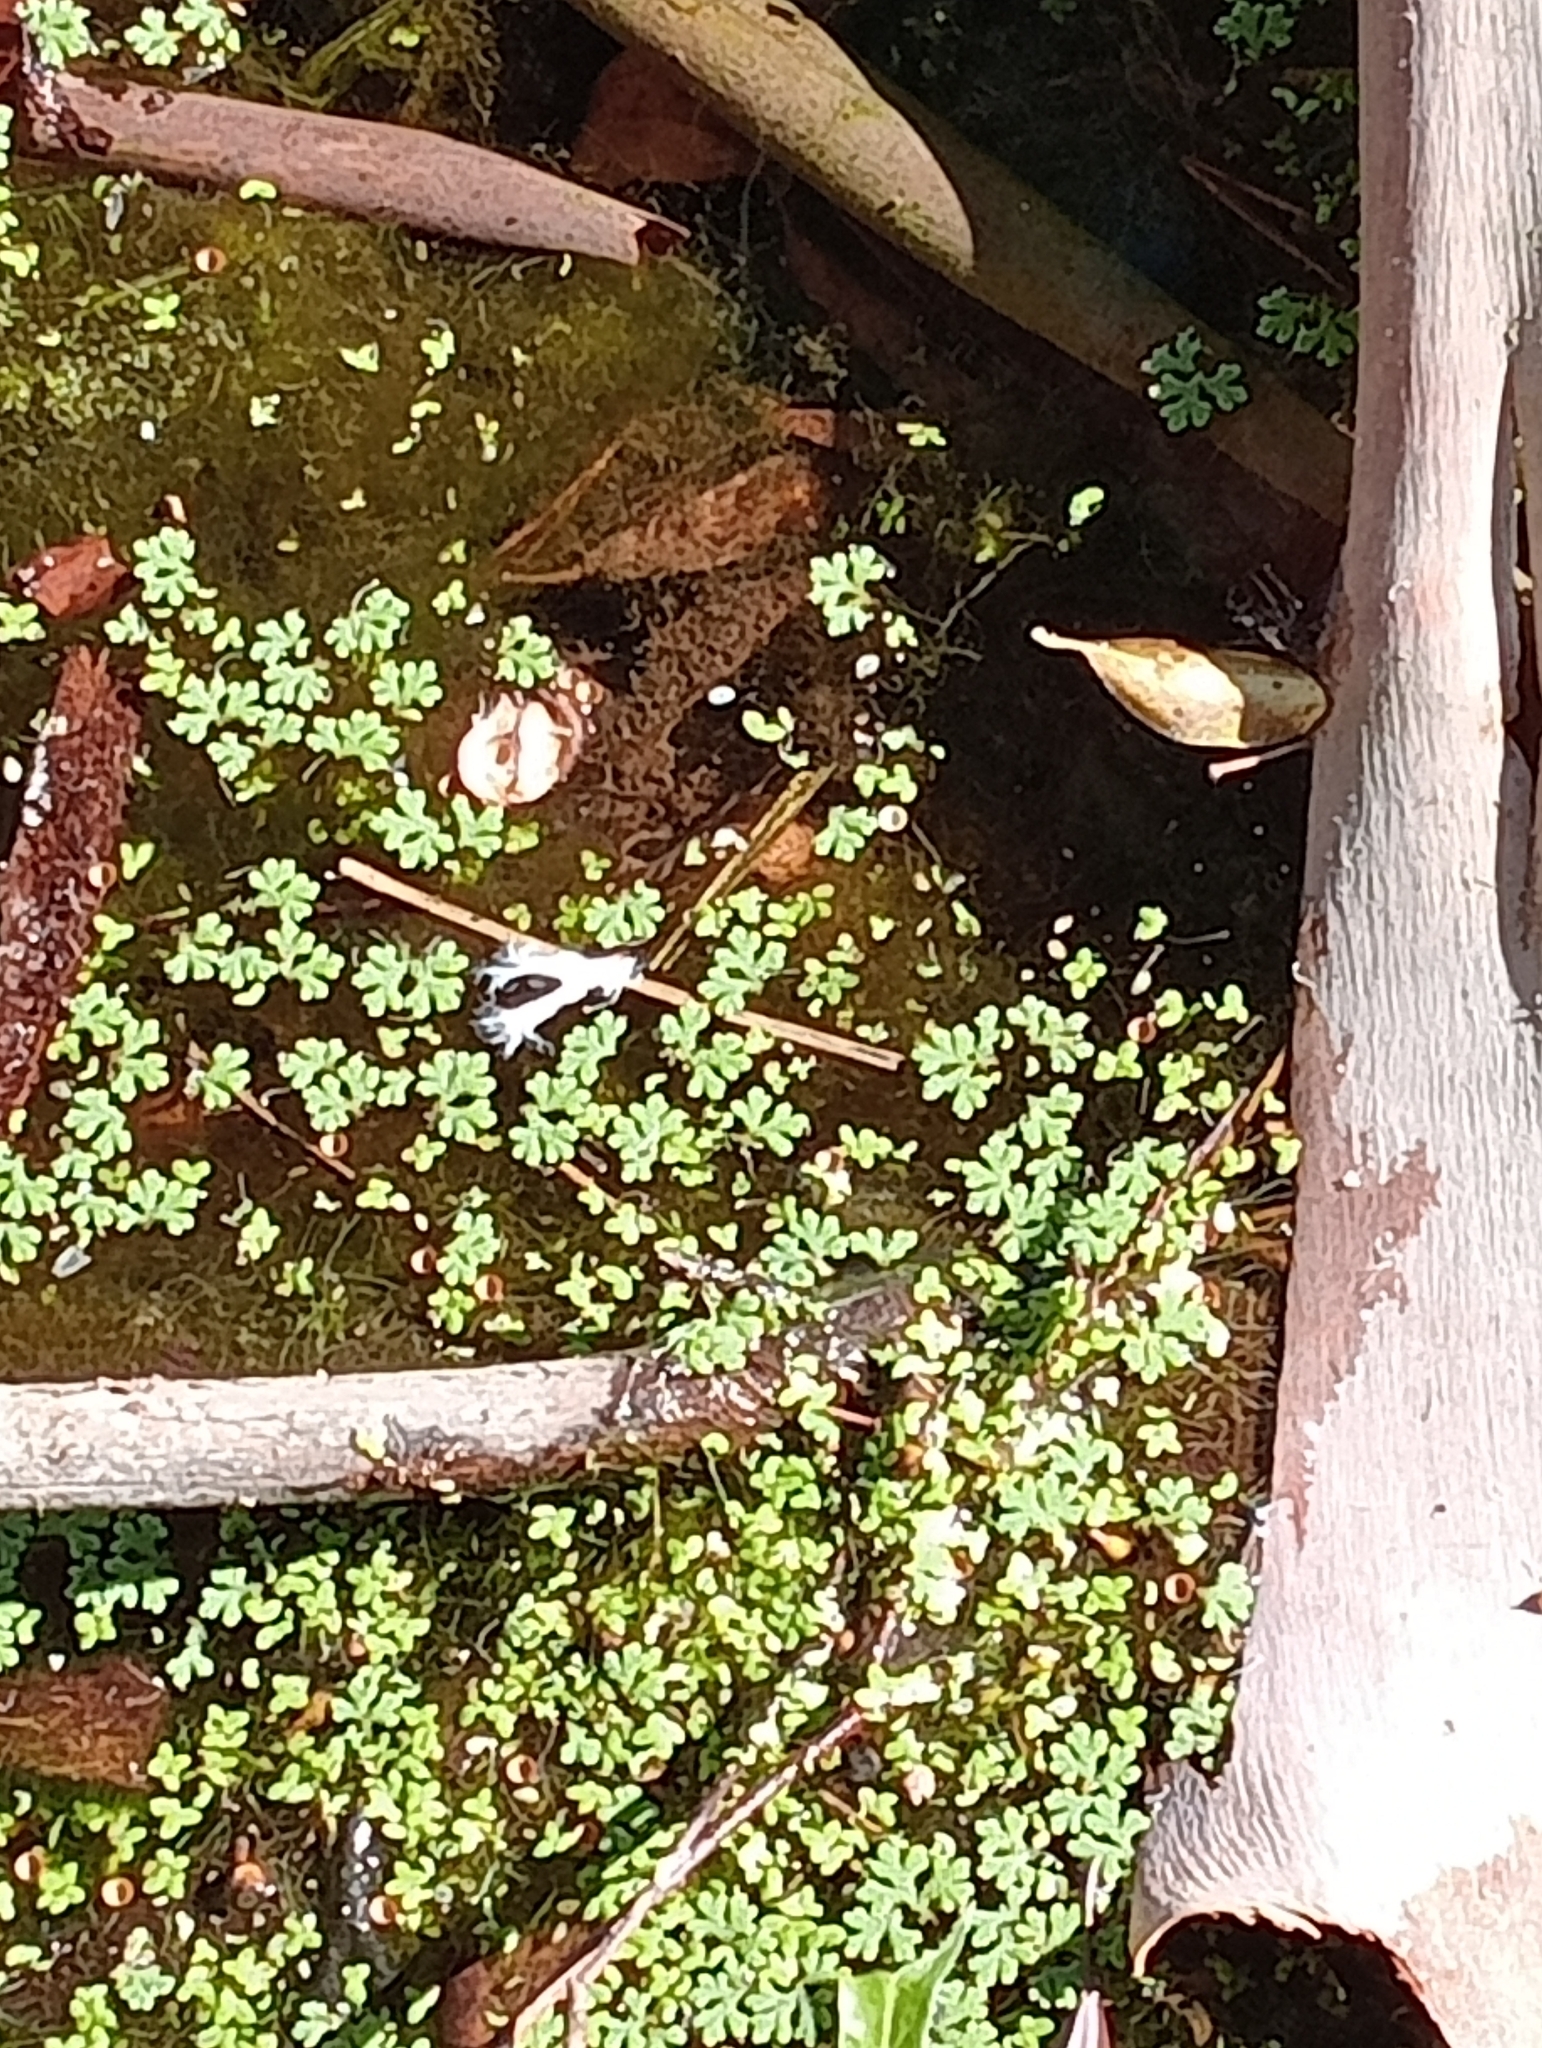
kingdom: Plantae
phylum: Tracheophyta
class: Polypodiopsida
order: Salviniales
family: Salviniaceae
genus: Azolla
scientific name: Azolla rubra
